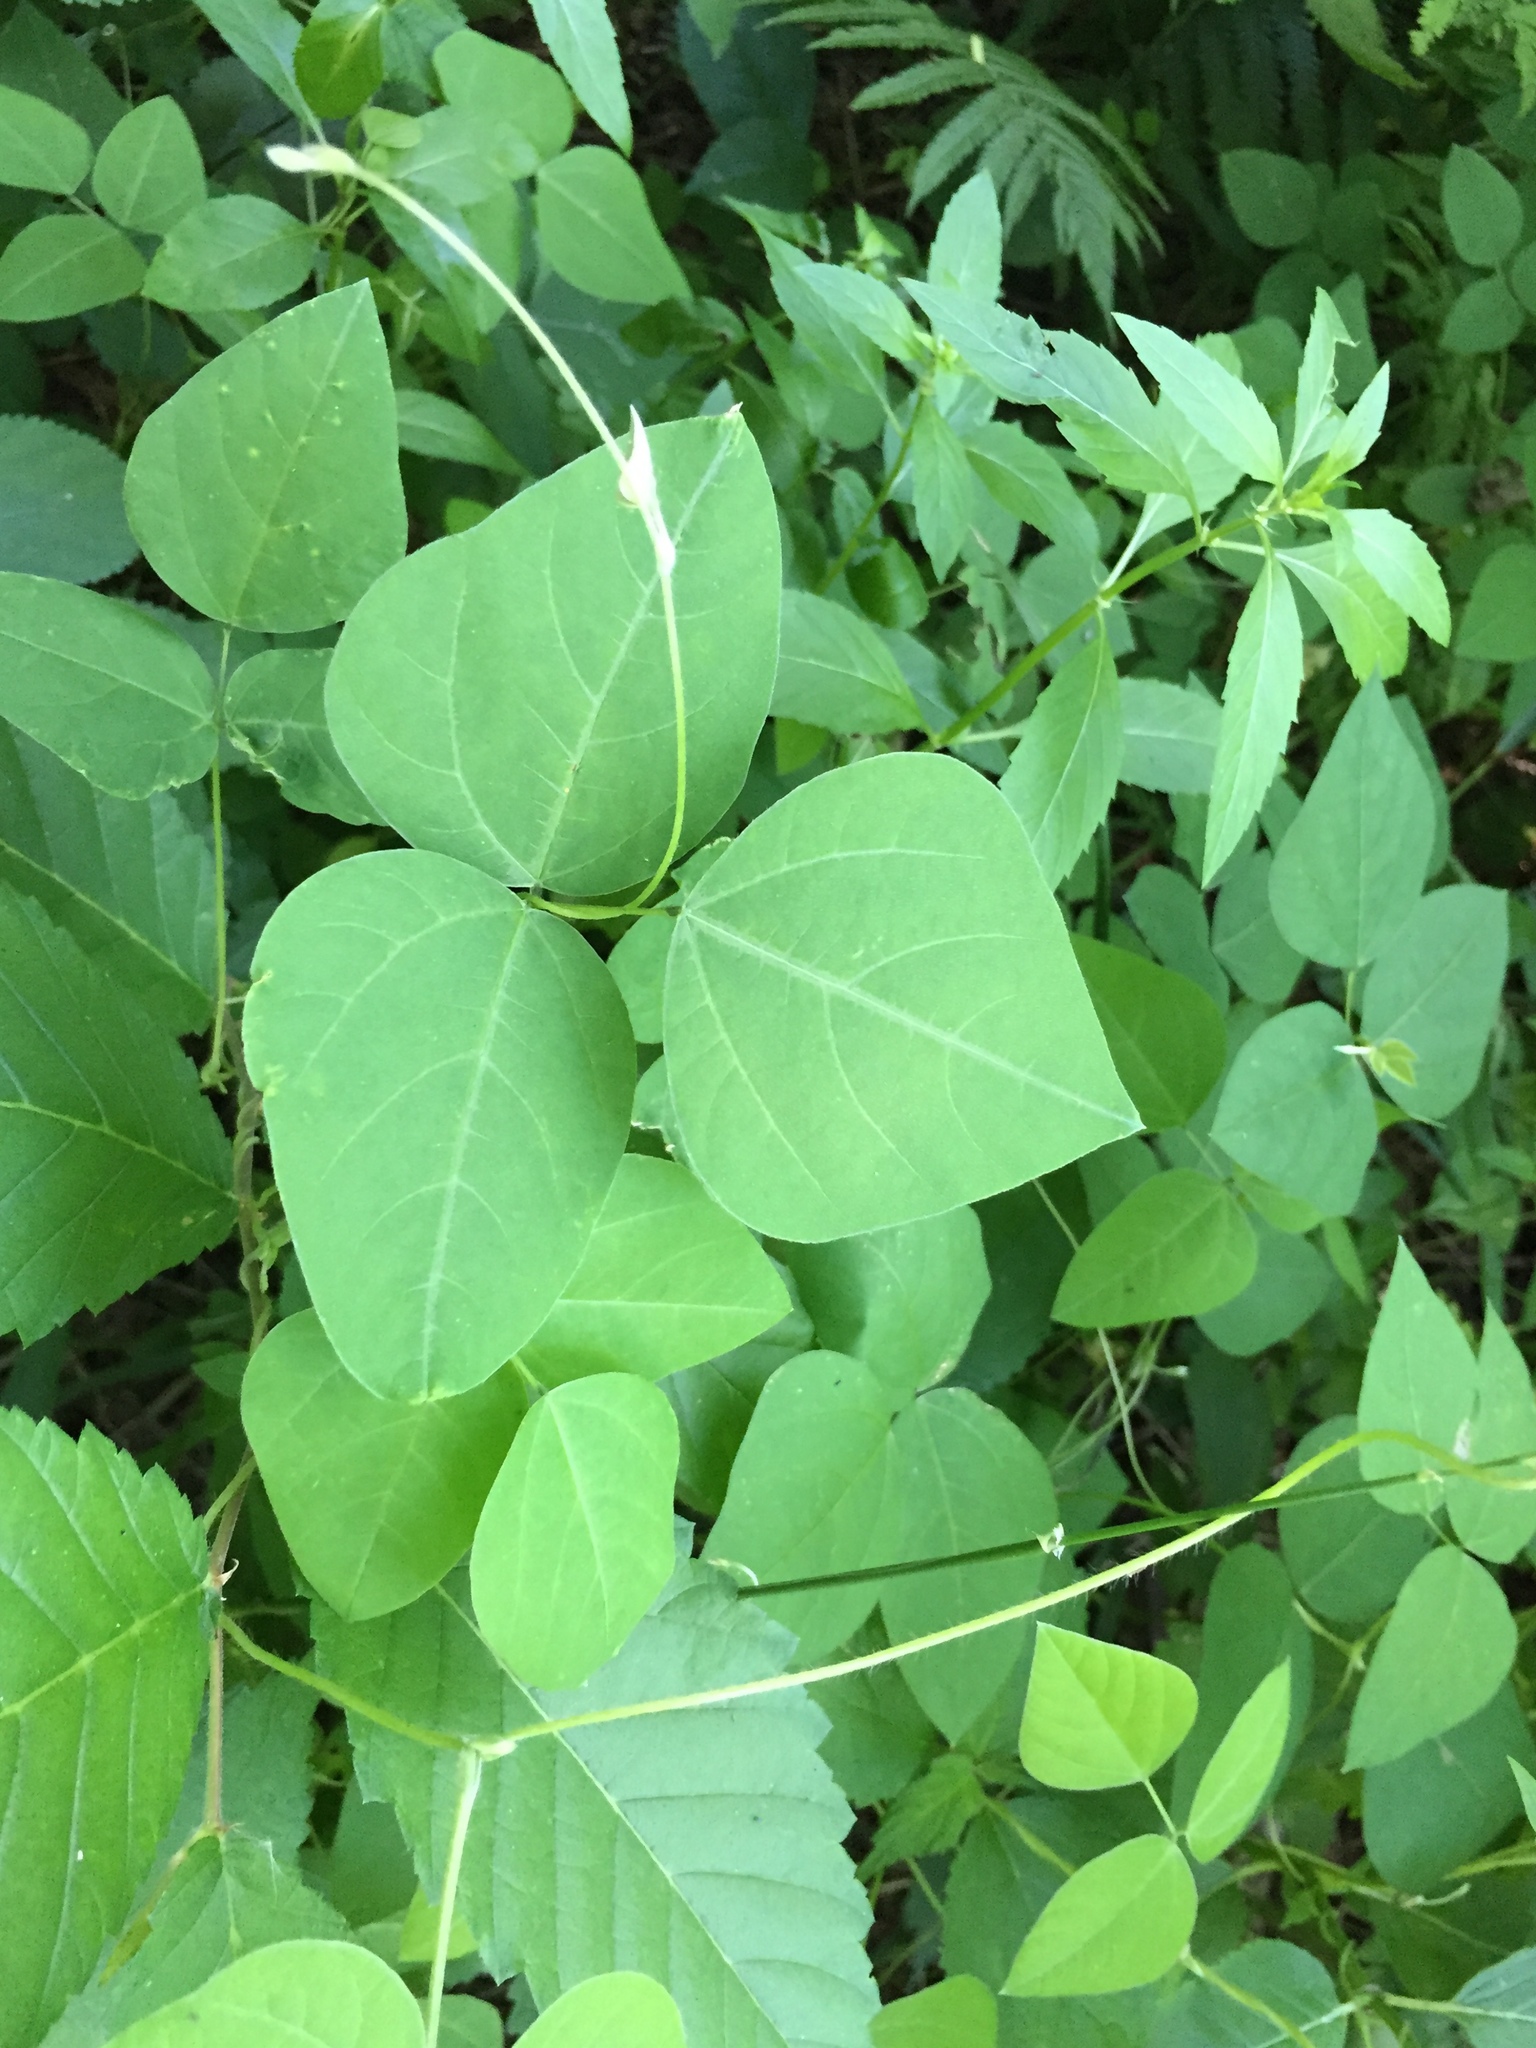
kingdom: Plantae
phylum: Tracheophyta
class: Magnoliopsida
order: Fabales
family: Fabaceae
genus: Amphicarpaea
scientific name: Amphicarpaea bracteata
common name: American hog peanut
